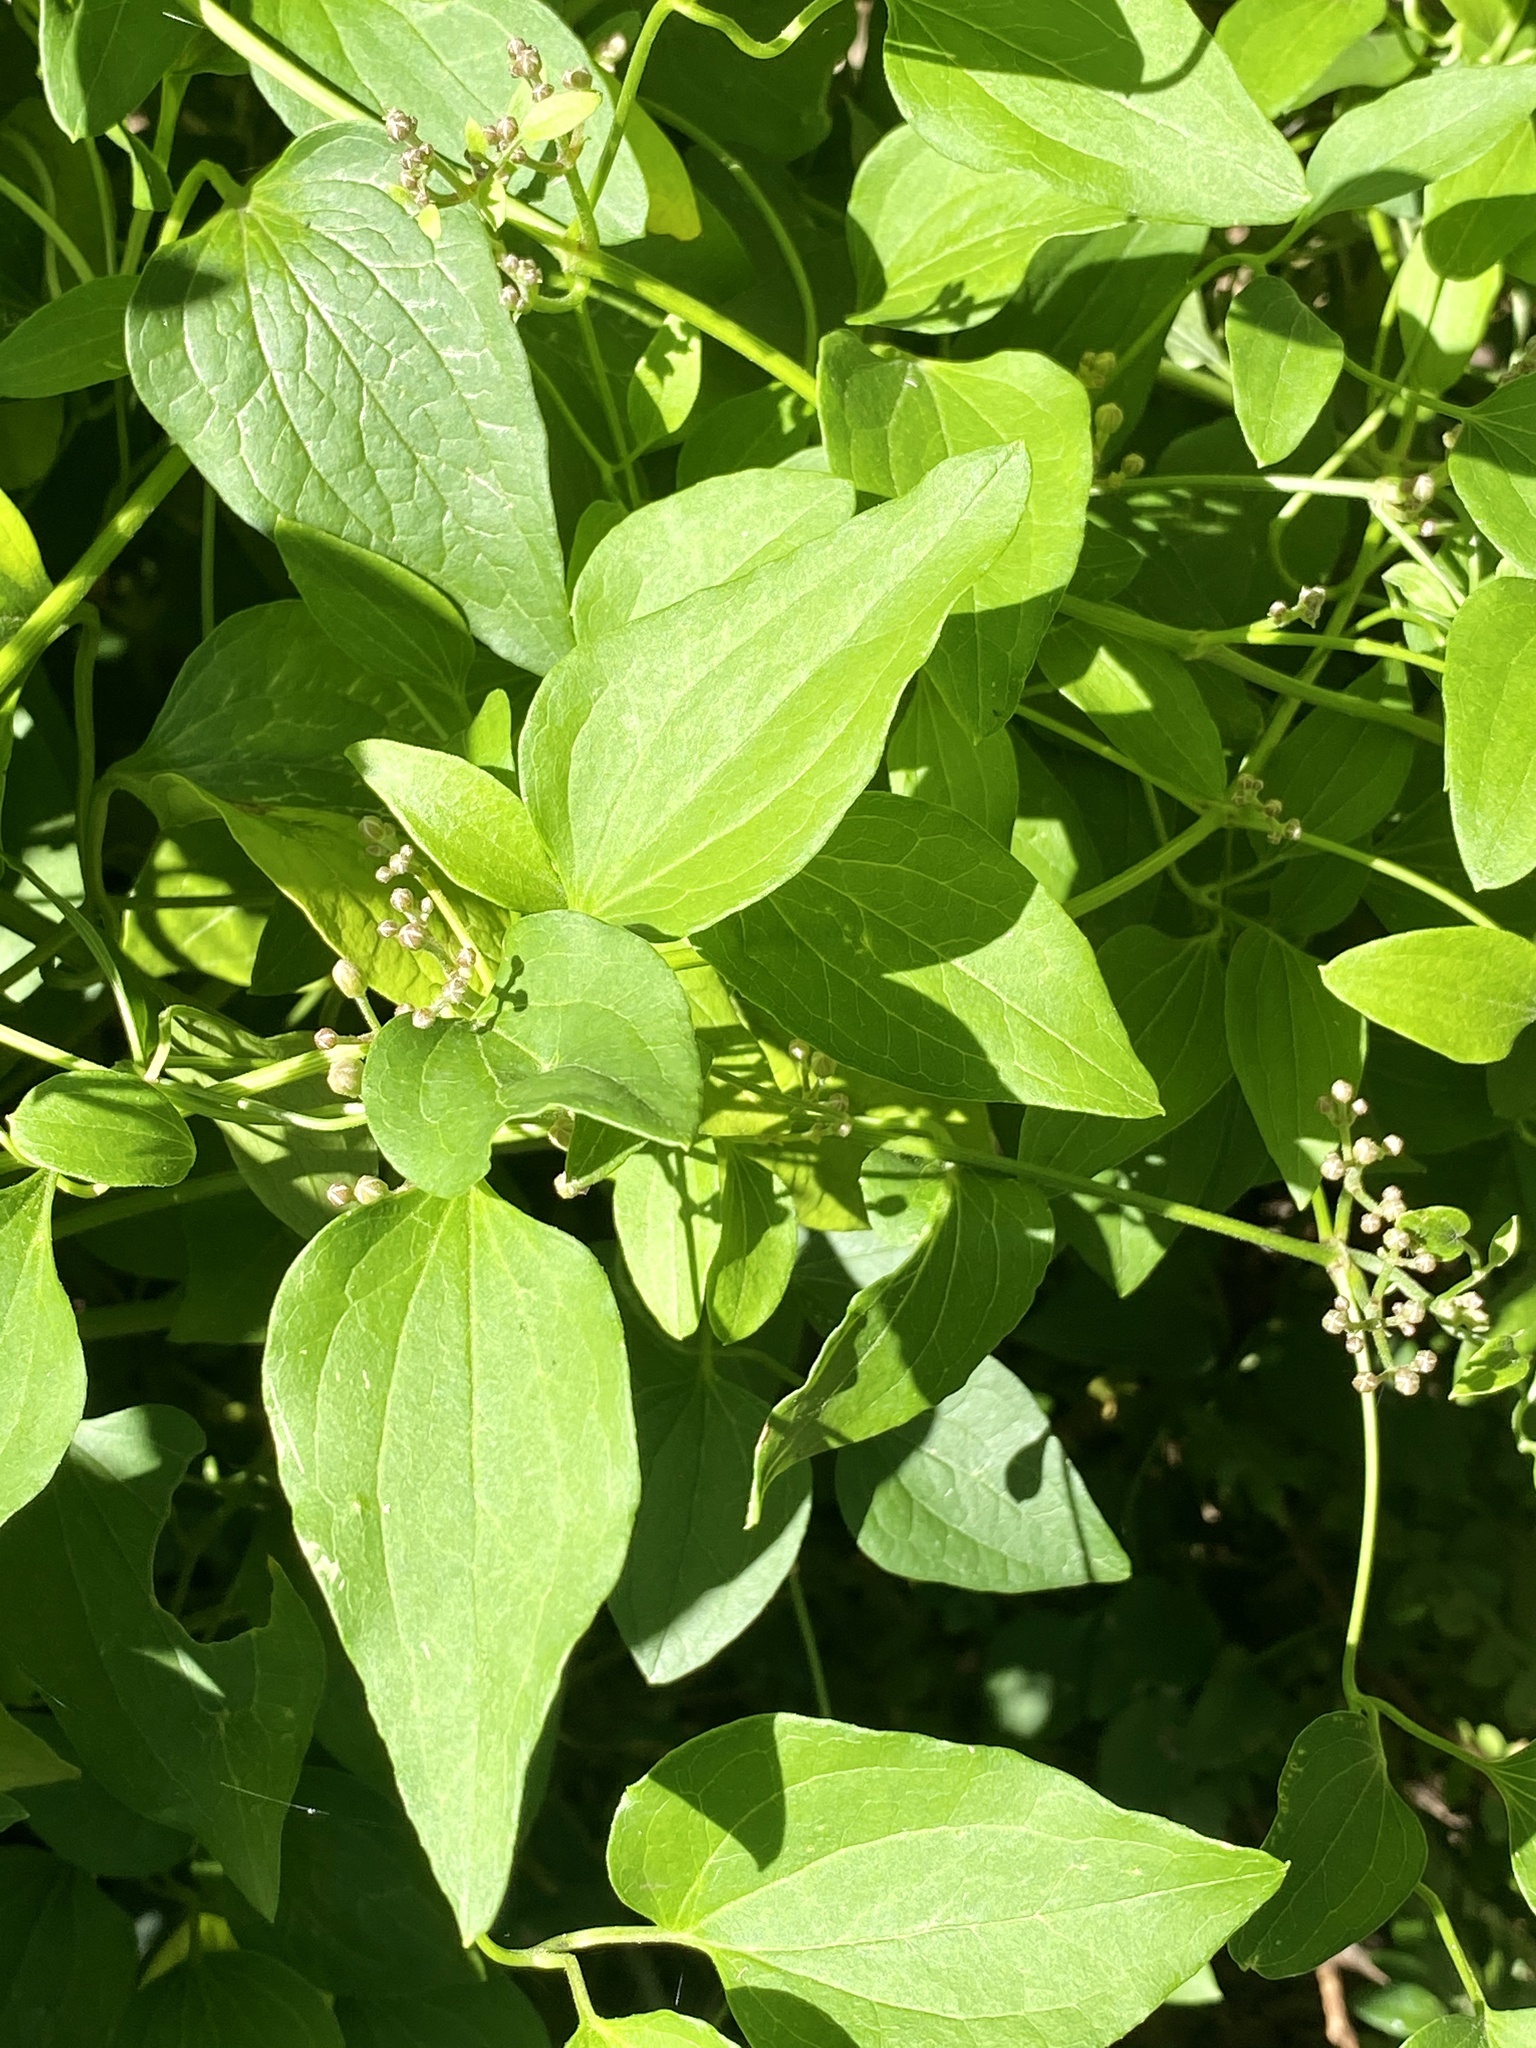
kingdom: Plantae
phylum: Tracheophyta
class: Magnoliopsida
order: Ranunculales
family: Ranunculaceae
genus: Clematis
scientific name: Clematis terniflora
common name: Sweet autumn clematis
